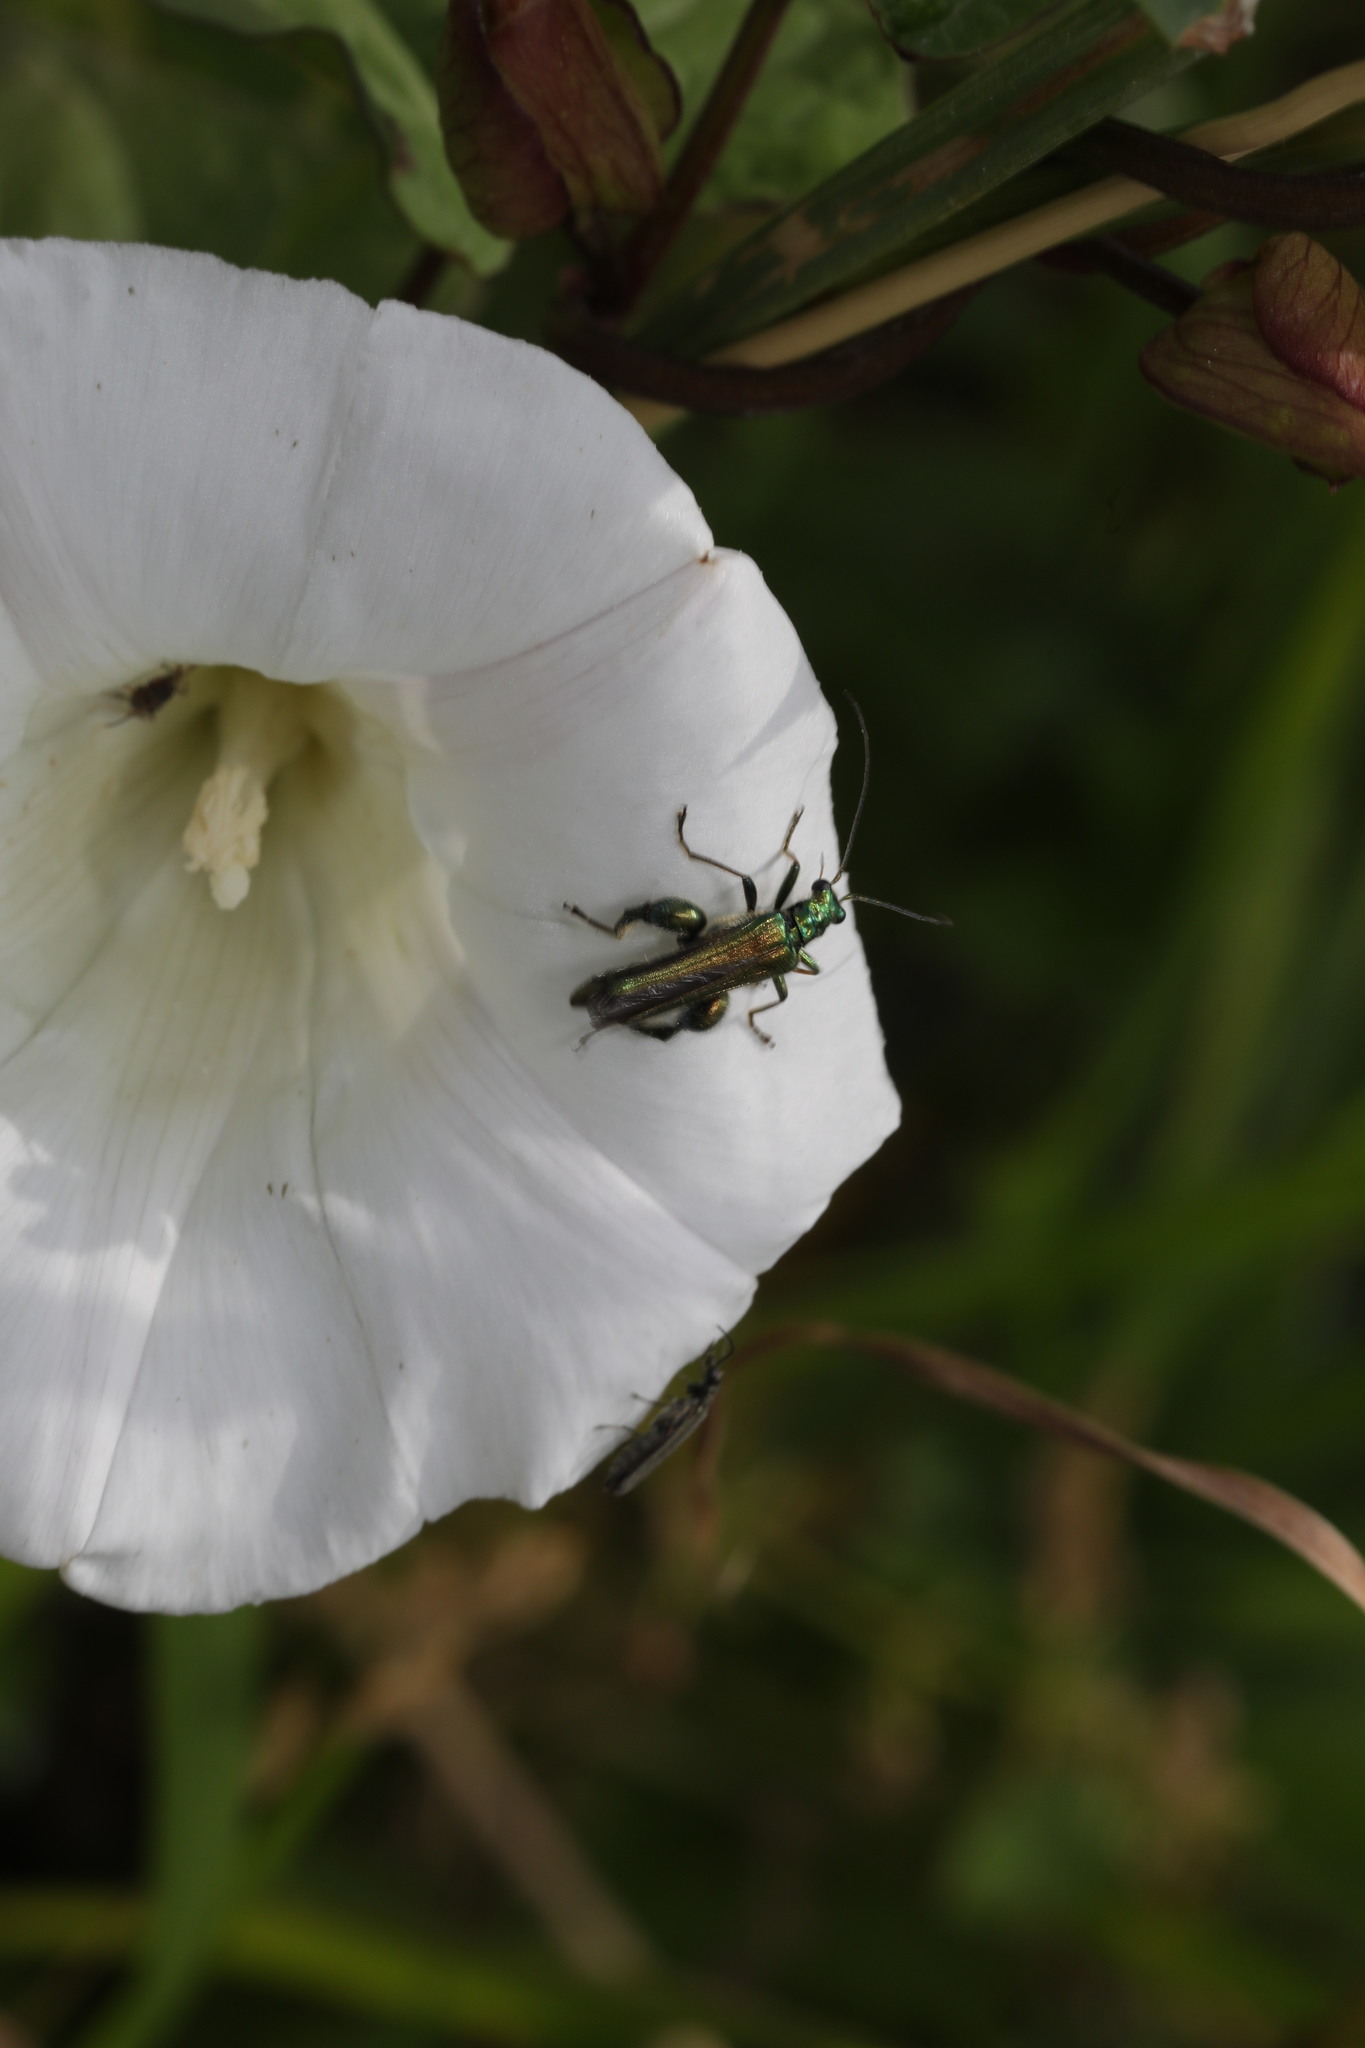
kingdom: Animalia
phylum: Arthropoda
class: Insecta
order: Coleoptera
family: Oedemeridae
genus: Oedemera
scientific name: Oedemera nobilis
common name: Swollen-thighed beetle
